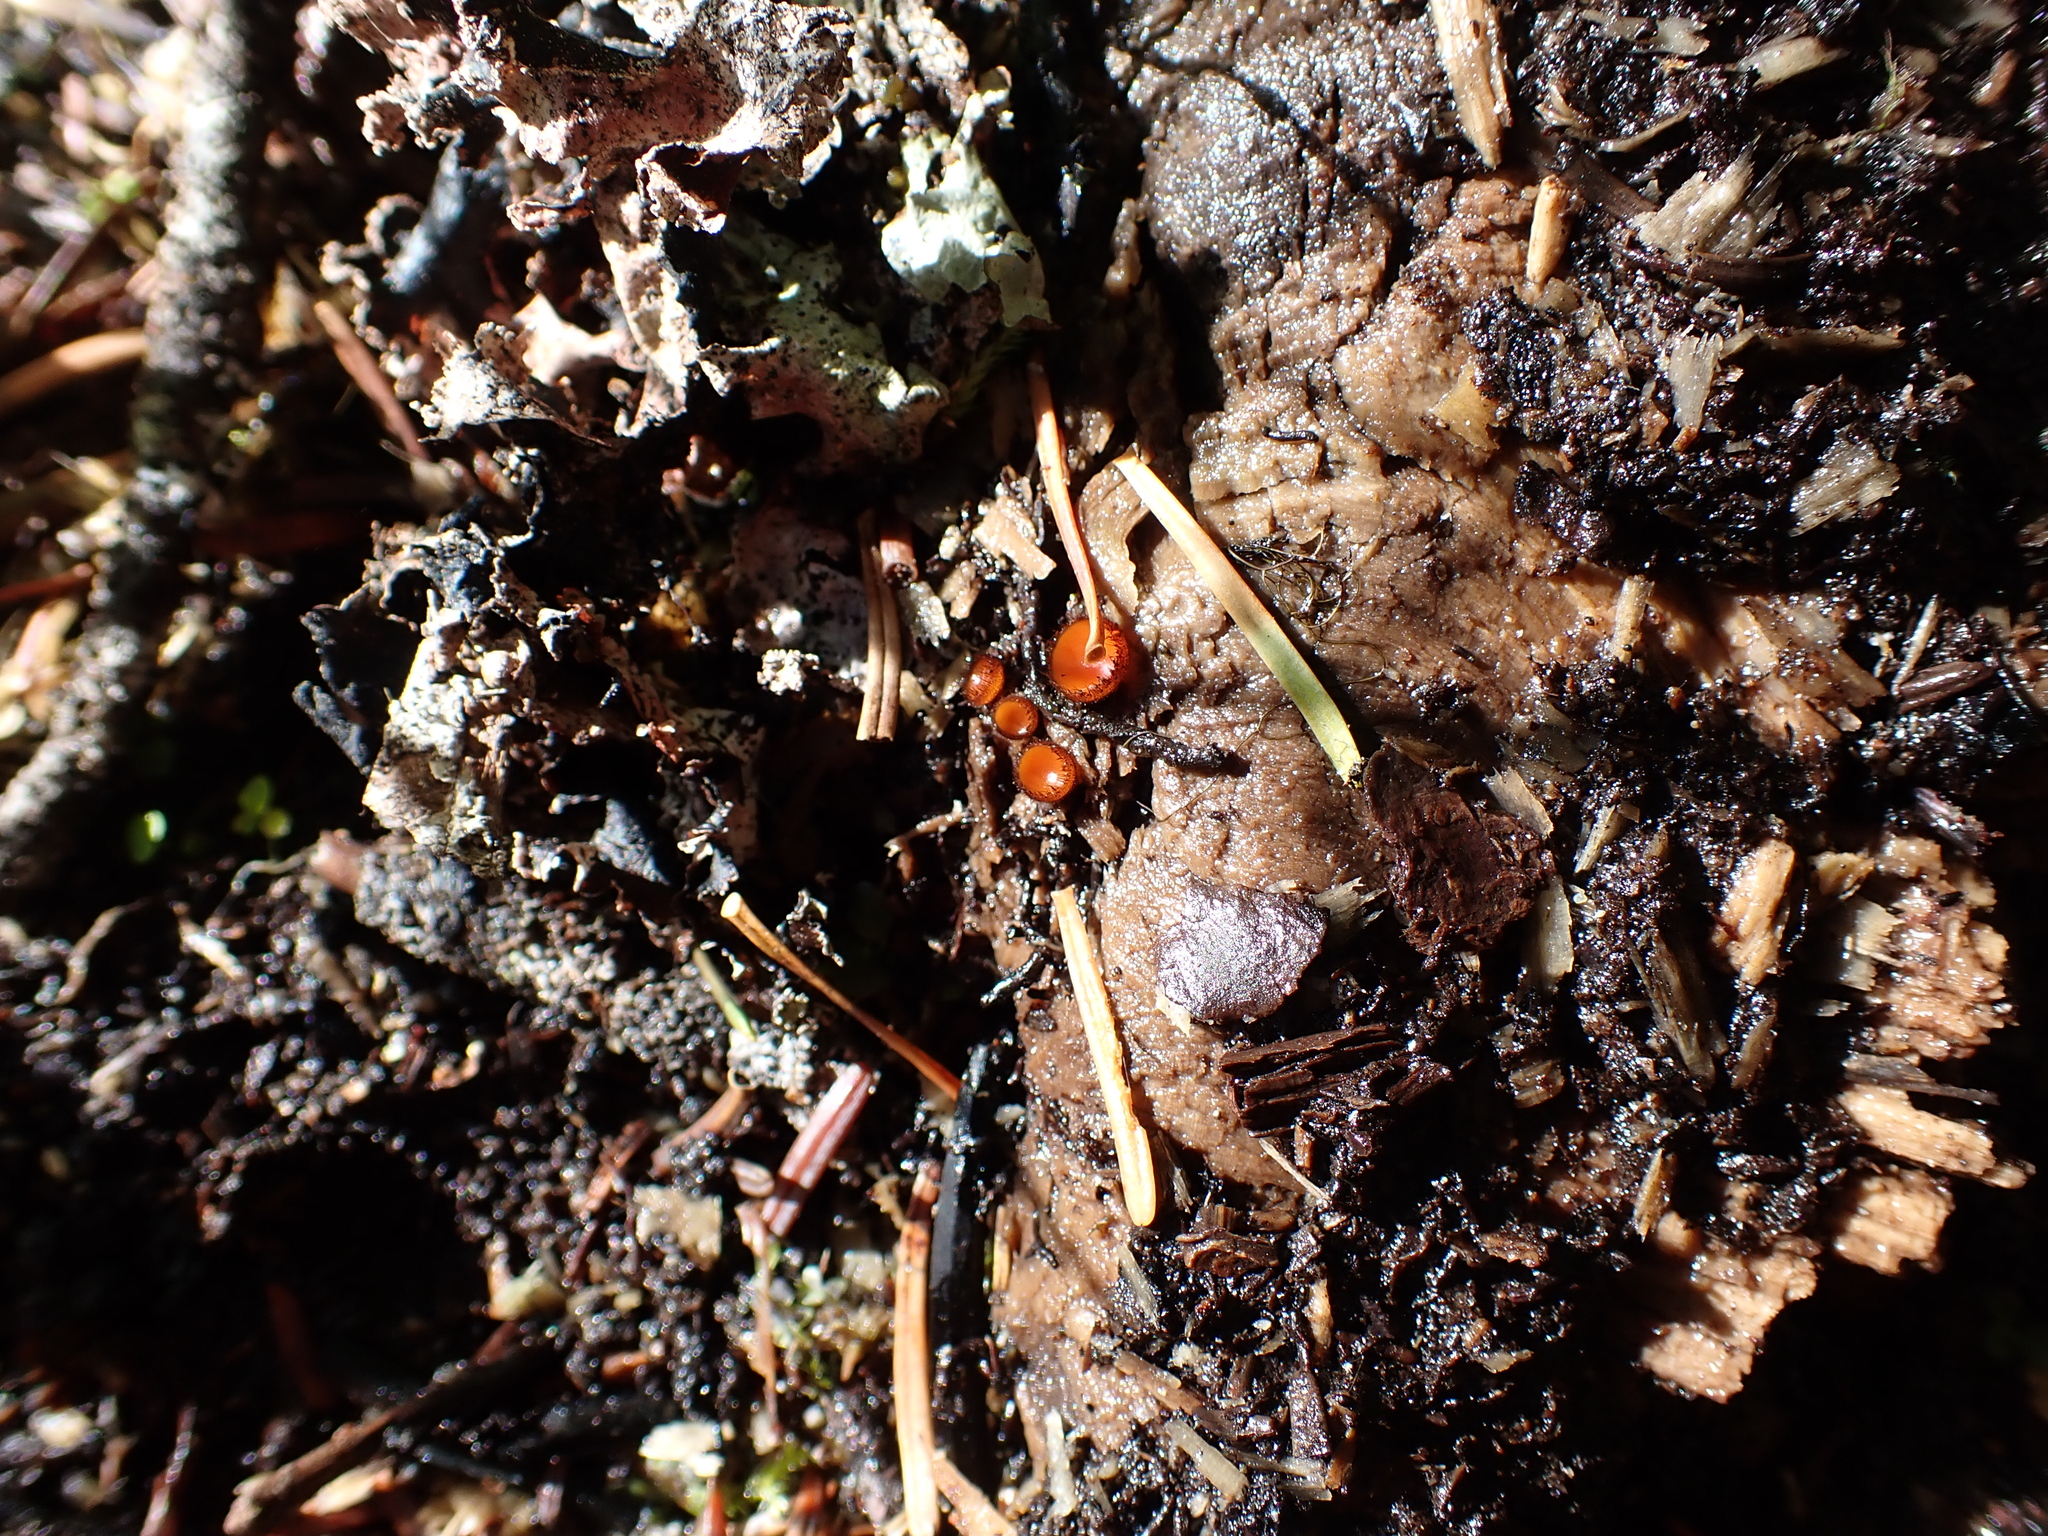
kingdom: Fungi
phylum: Ascomycota
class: Pezizomycetes
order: Pezizales
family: Pyronemataceae
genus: Scutellinia
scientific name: Scutellinia scutellata
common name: Common eyelash
